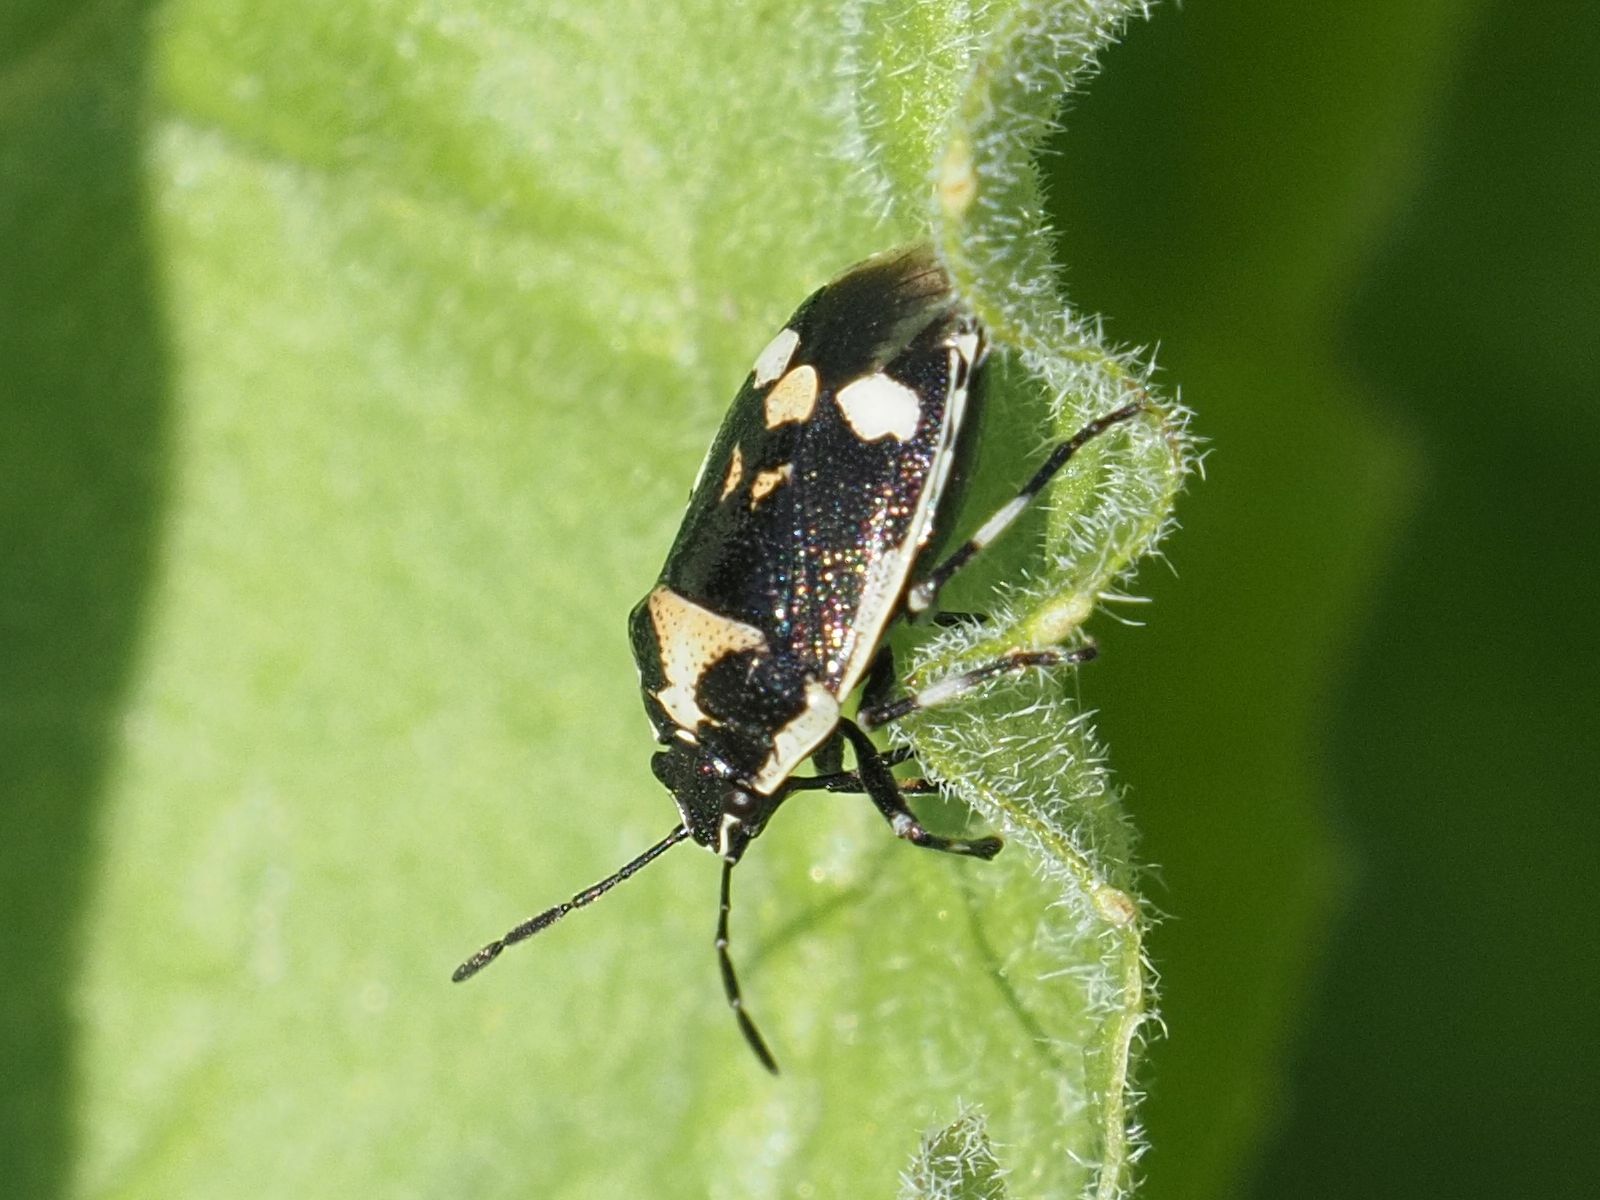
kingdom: Animalia
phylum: Arthropoda
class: Insecta
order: Hemiptera
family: Pentatomidae
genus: Eurydema
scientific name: Eurydema oleracea
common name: Cabbage bug
